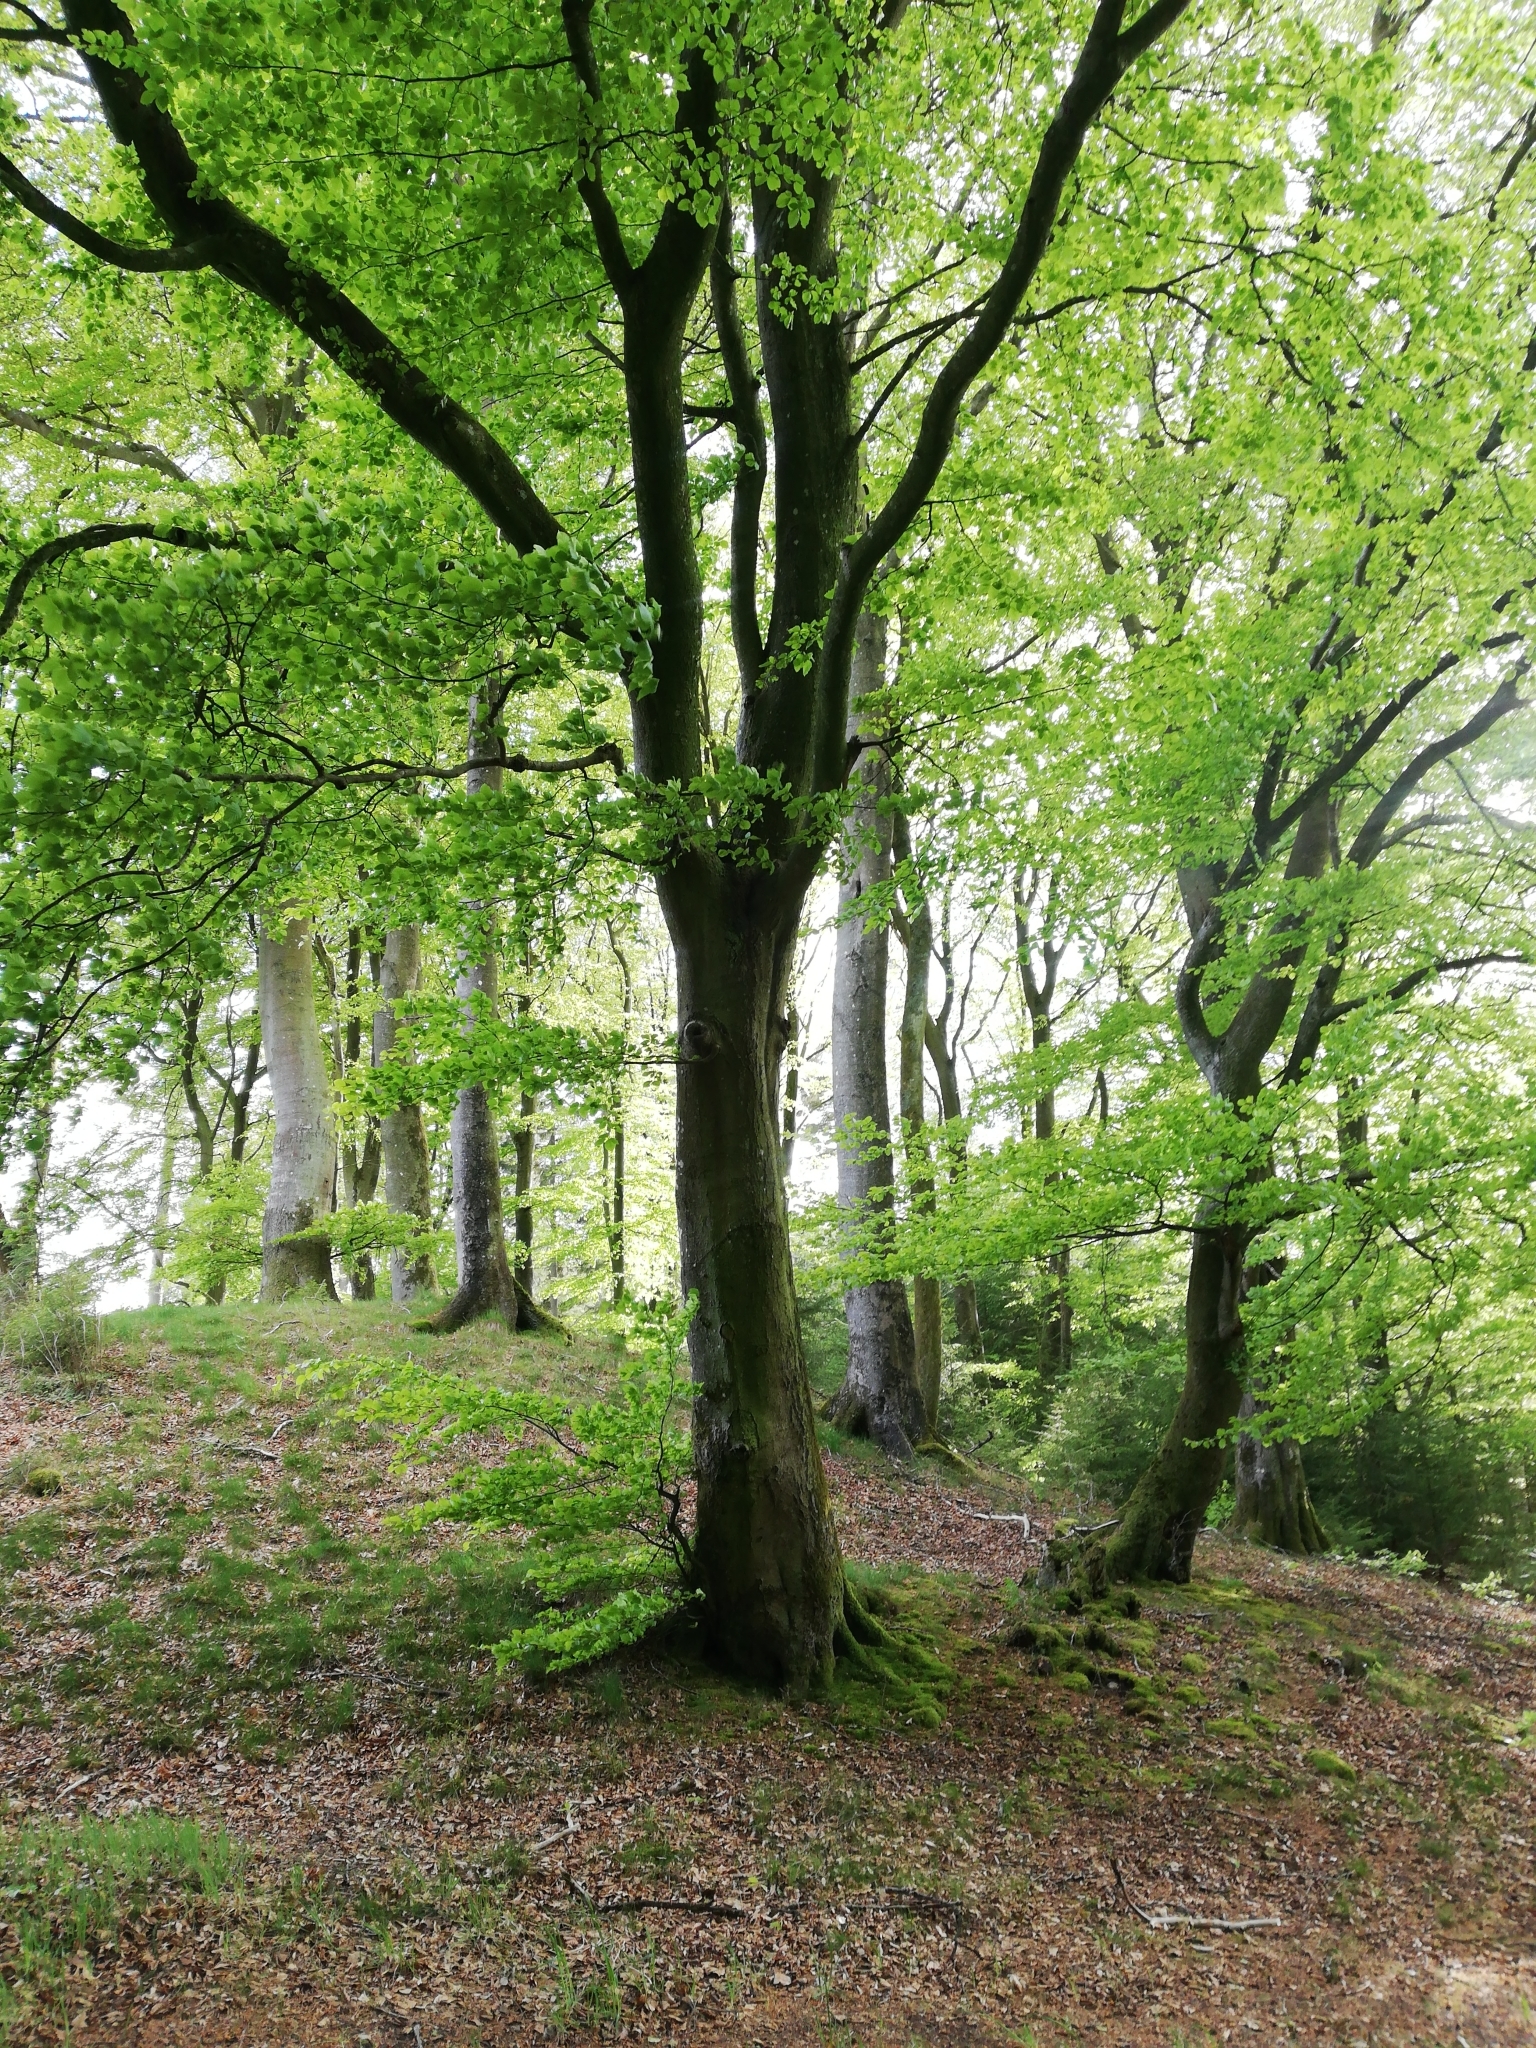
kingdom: Plantae
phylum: Tracheophyta
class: Magnoliopsida
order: Fagales
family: Fagaceae
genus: Fagus
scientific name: Fagus sylvatica
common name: Beech
